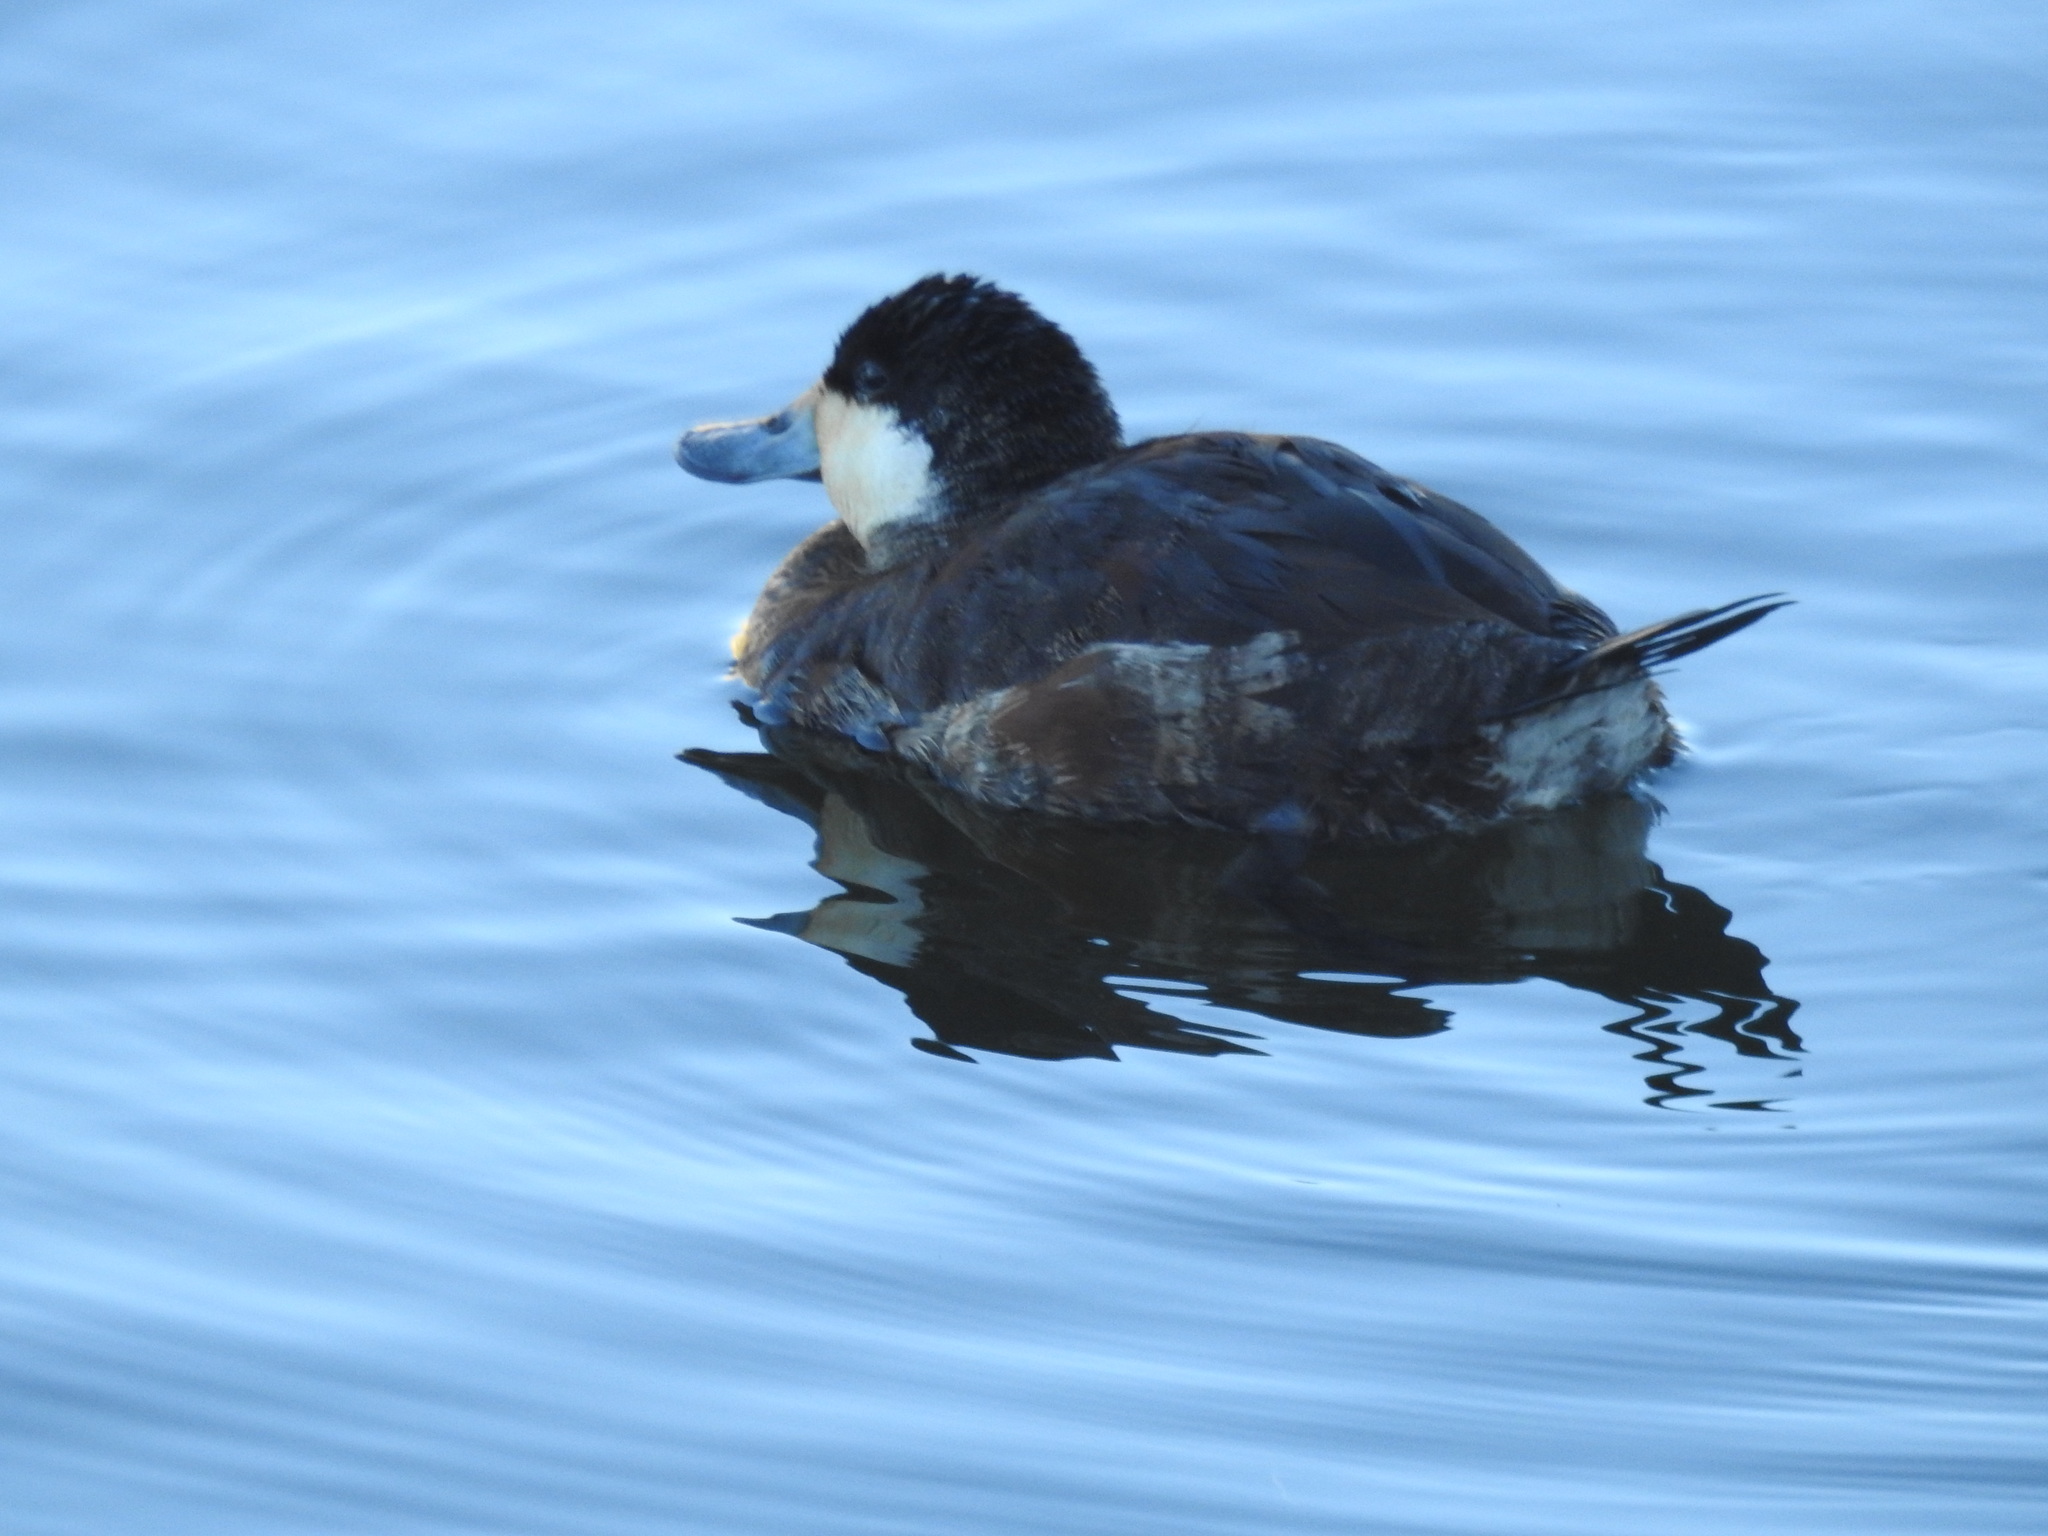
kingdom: Animalia
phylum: Chordata
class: Aves
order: Anseriformes
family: Anatidae
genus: Oxyura
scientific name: Oxyura jamaicensis
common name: Ruddy duck
